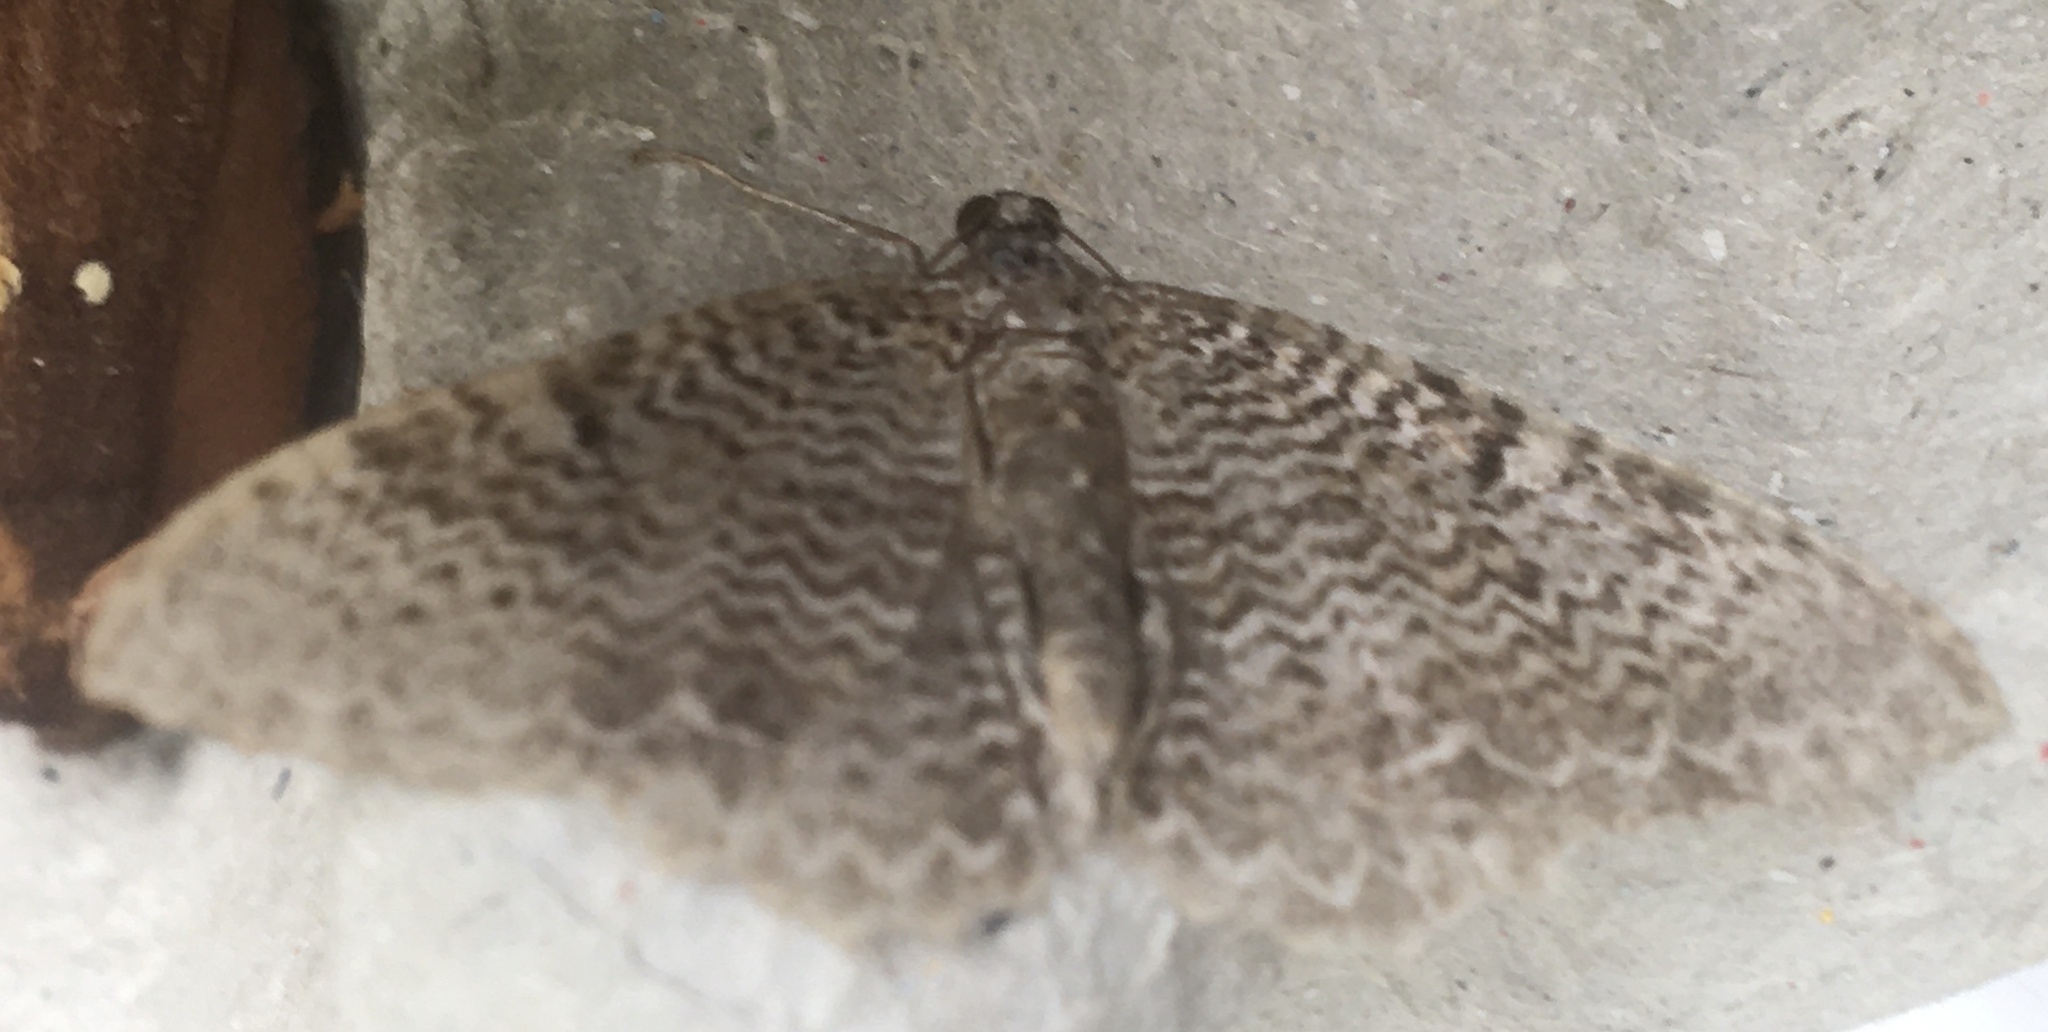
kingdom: Animalia
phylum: Arthropoda
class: Insecta
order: Lepidoptera
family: Geometridae
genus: Rheumaptera
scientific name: Rheumaptera undulata
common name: Scallop shell
